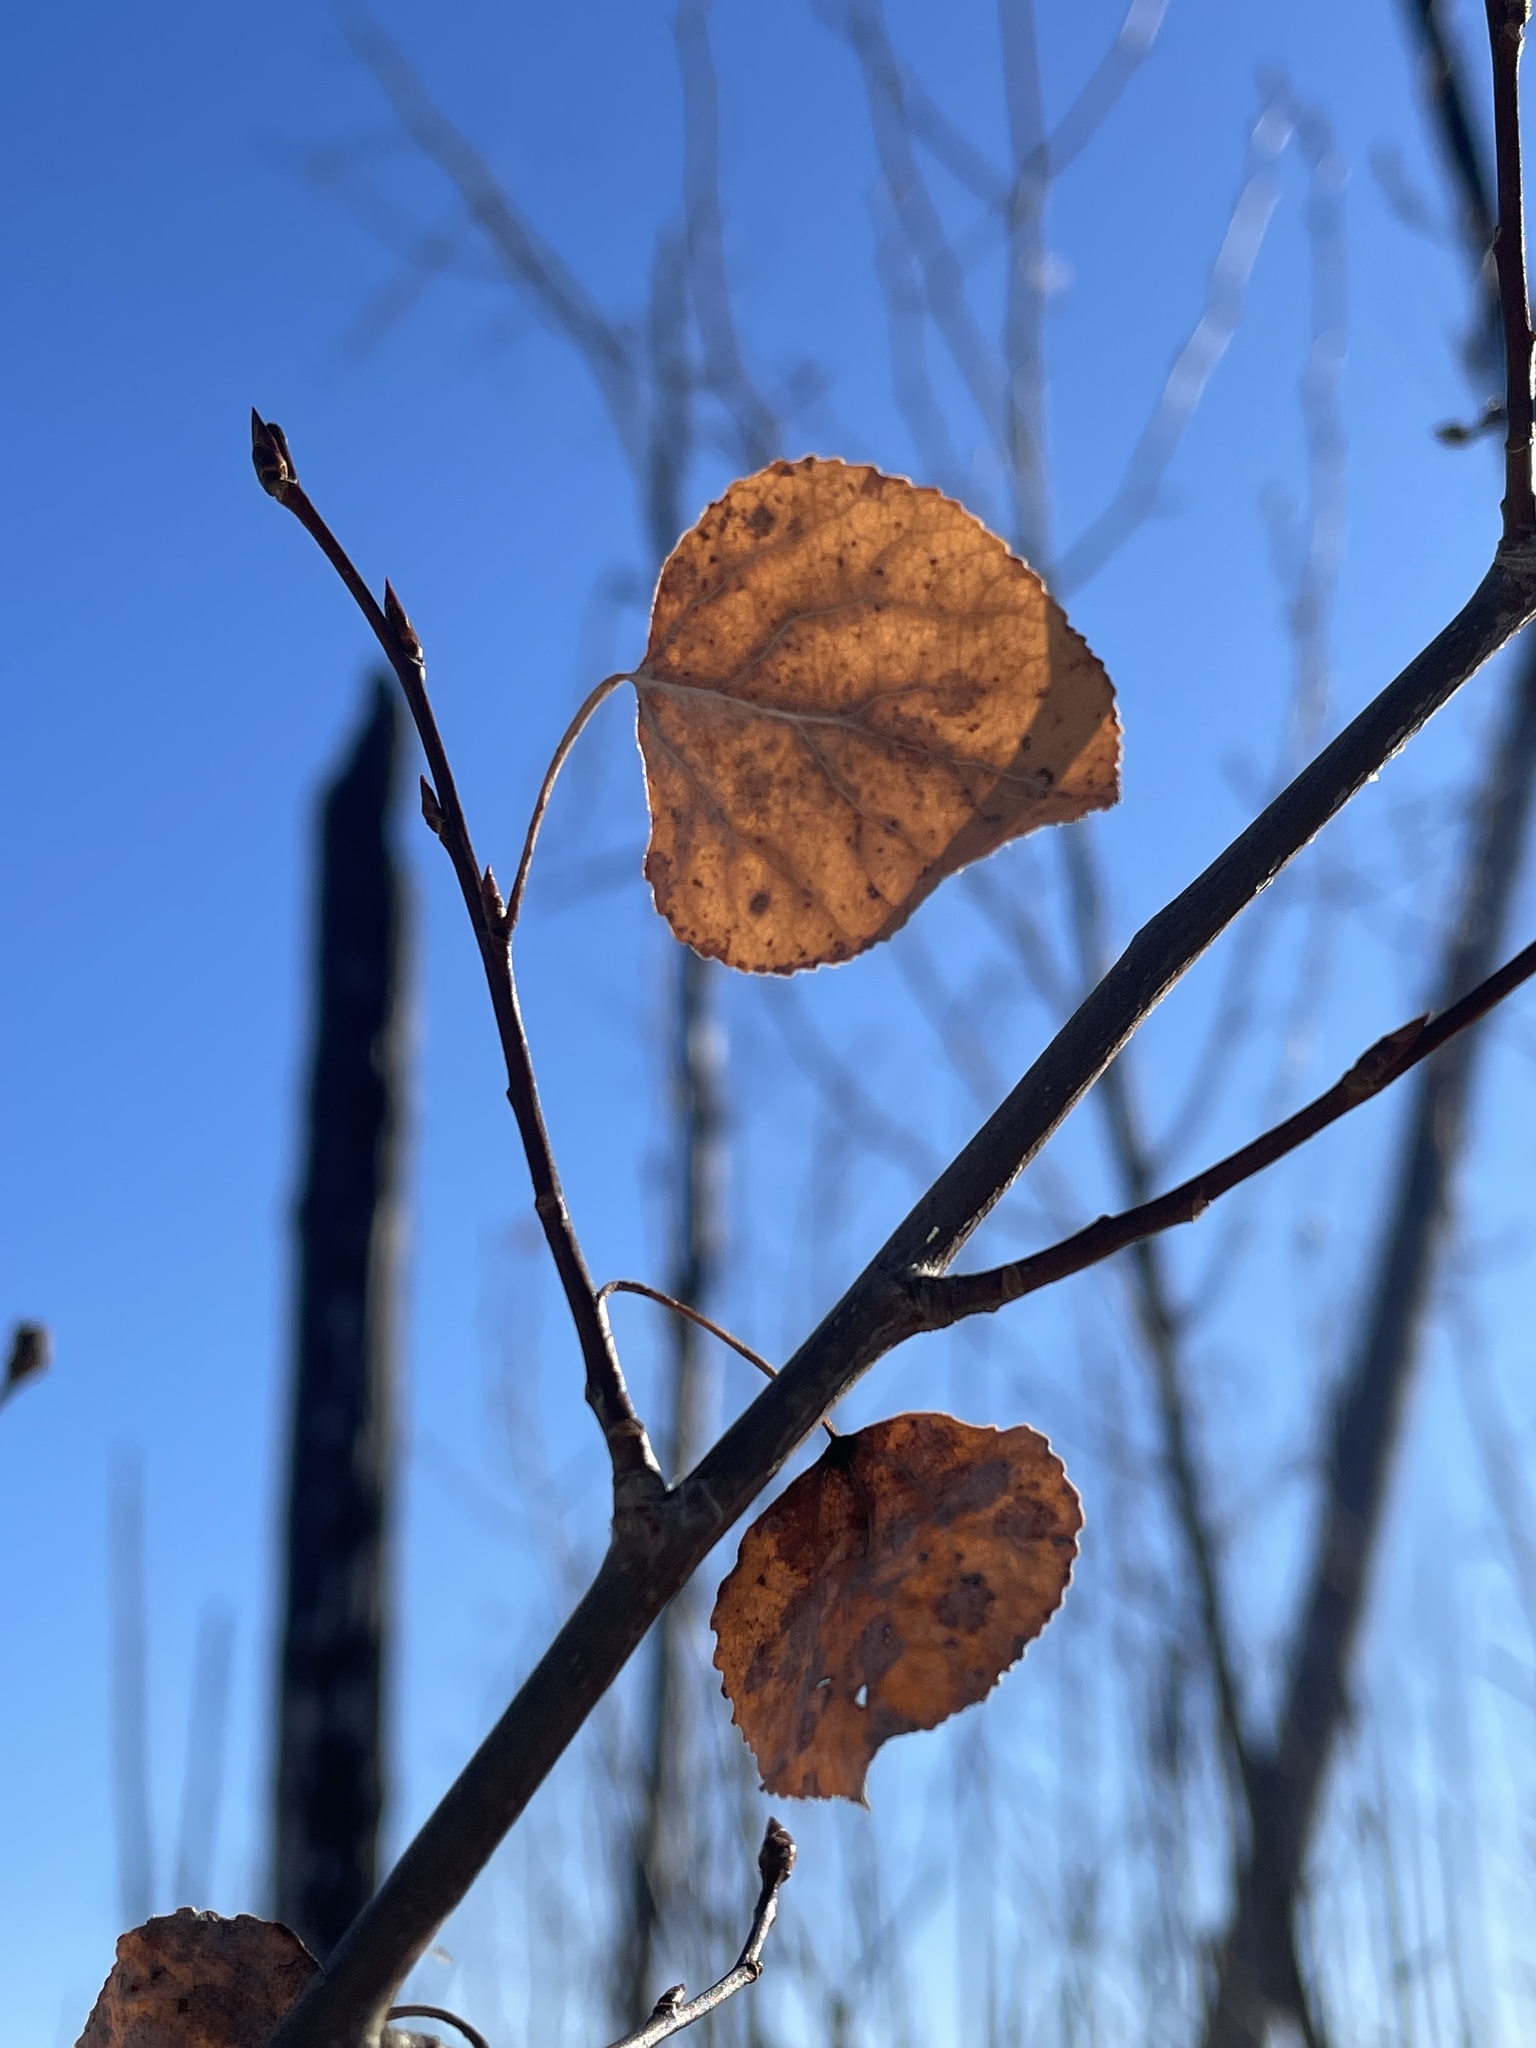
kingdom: Plantae
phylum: Tracheophyta
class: Magnoliopsida
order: Malpighiales
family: Salicaceae
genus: Populus
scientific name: Populus tremuloides
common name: Quaking aspen
